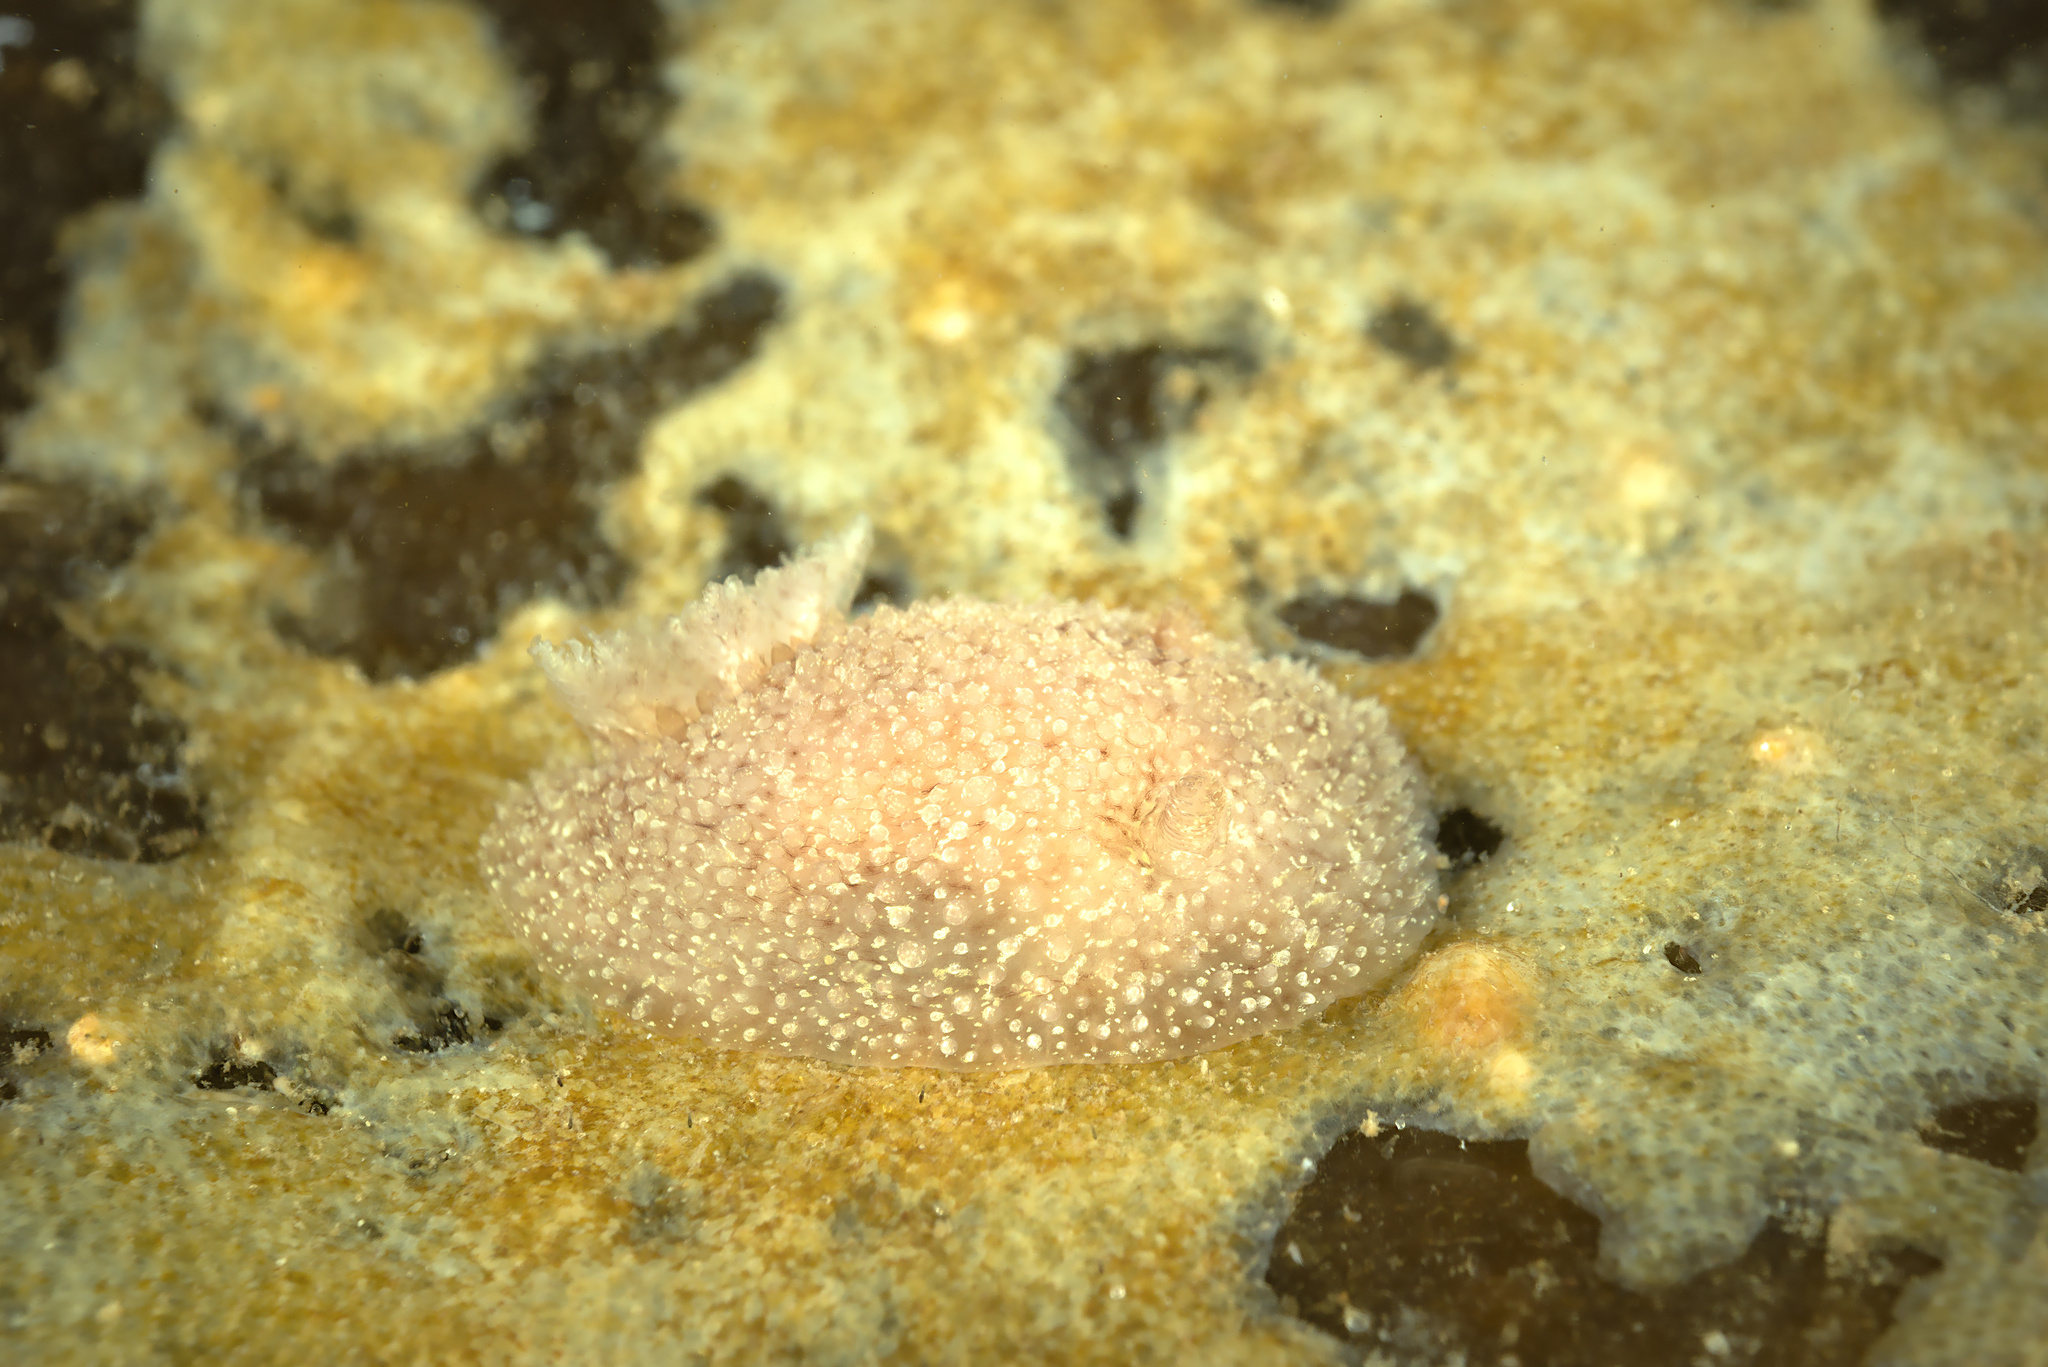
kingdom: Animalia
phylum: Mollusca
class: Gastropoda
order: Nudibranchia
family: Onchidorididae
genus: Acanthodoris
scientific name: Acanthodoris pilosa
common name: Hairy spiny doris
